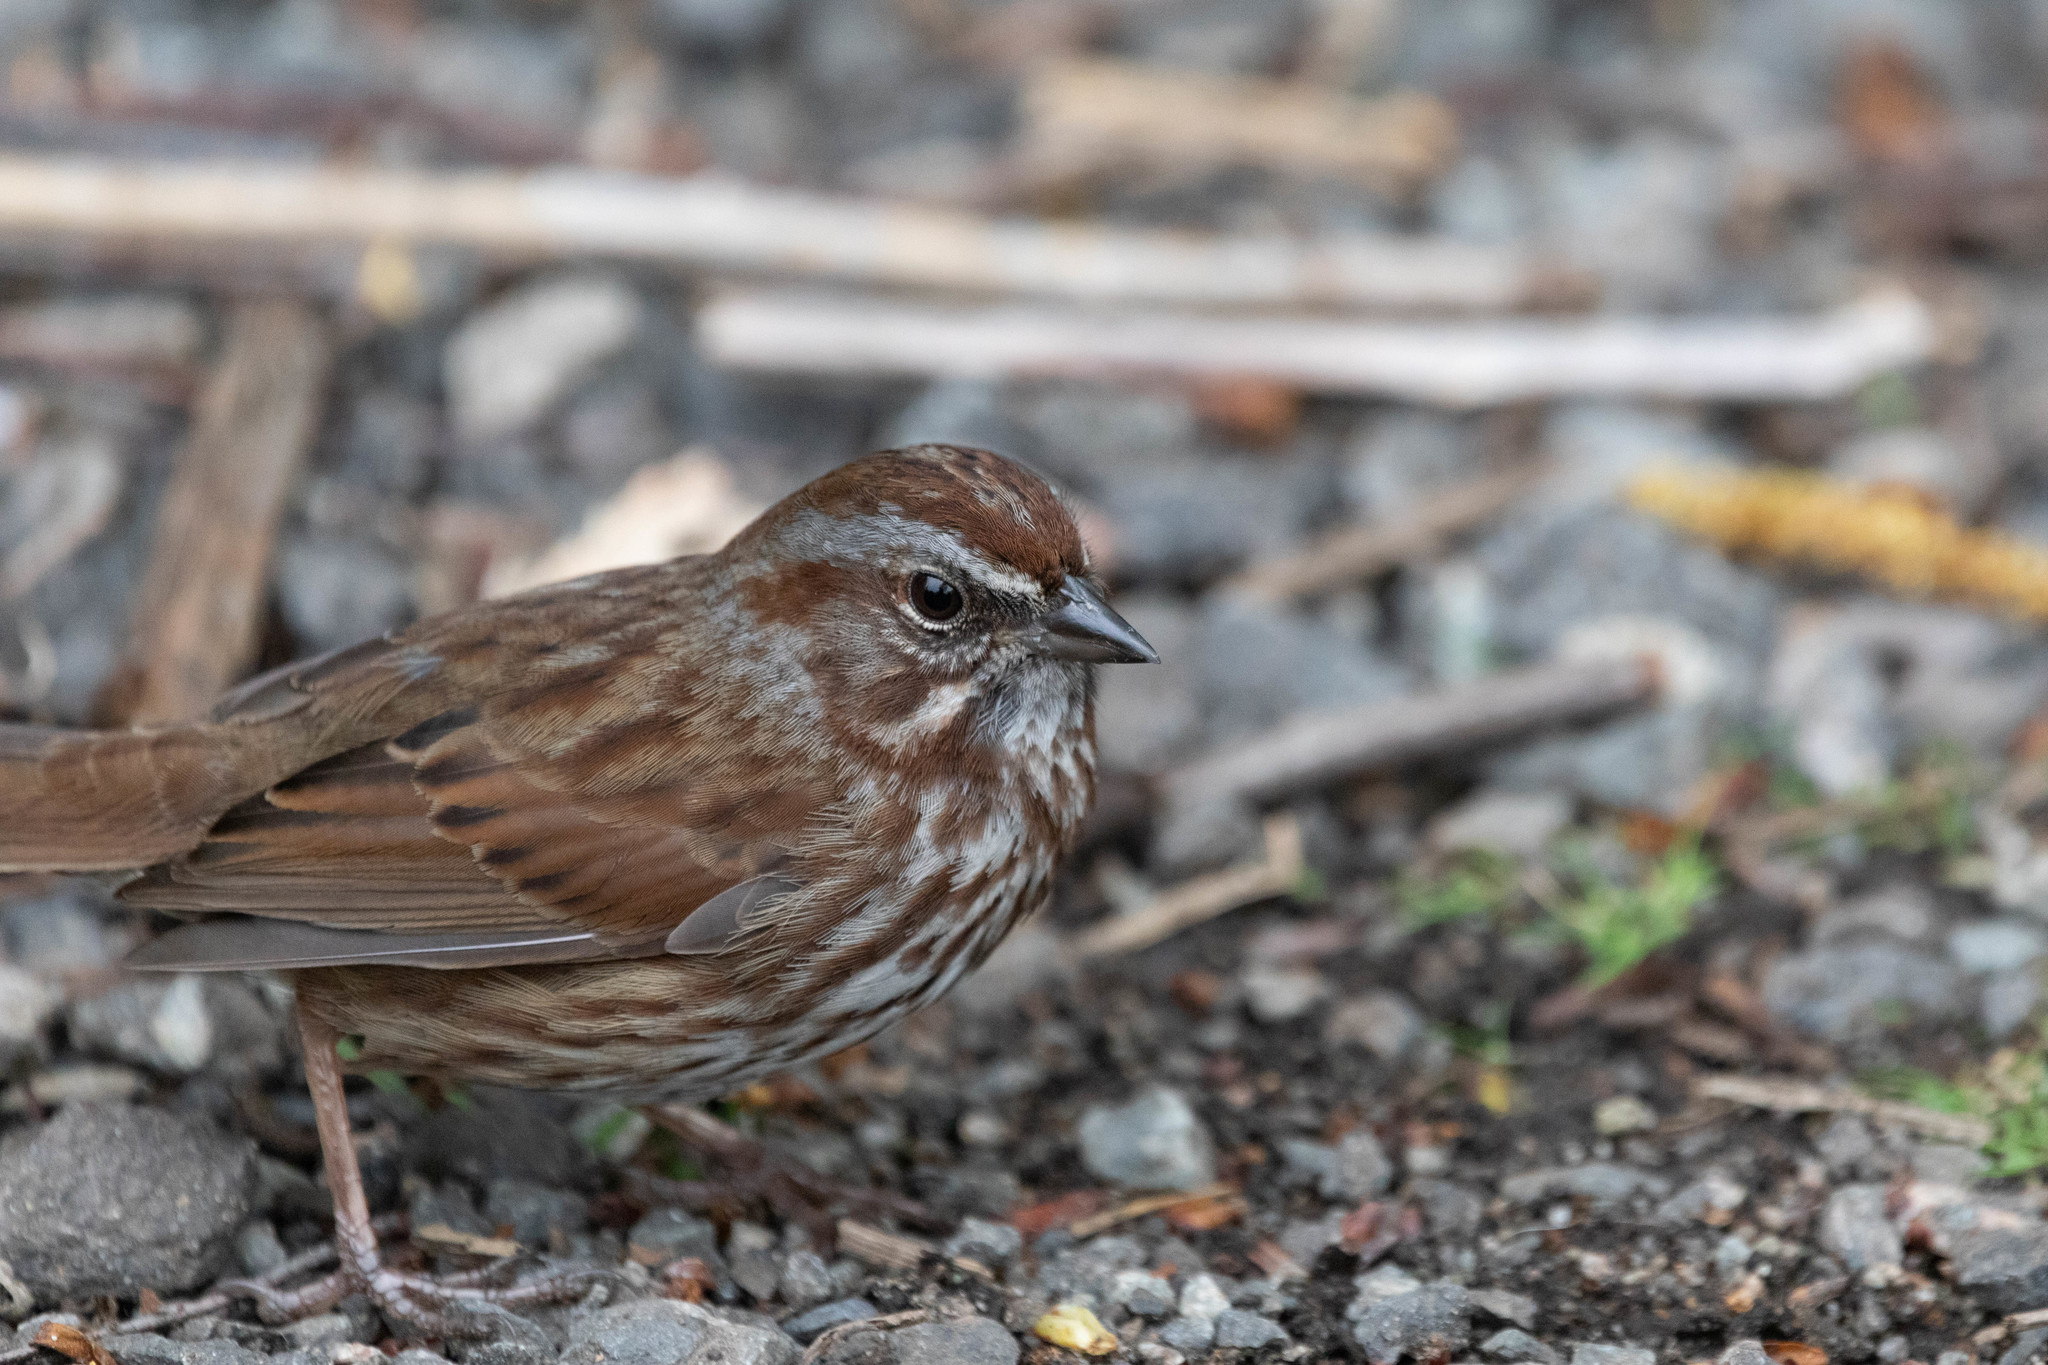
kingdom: Animalia
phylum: Chordata
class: Aves
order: Passeriformes
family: Passerellidae
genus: Melospiza
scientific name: Melospiza melodia
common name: Song sparrow
